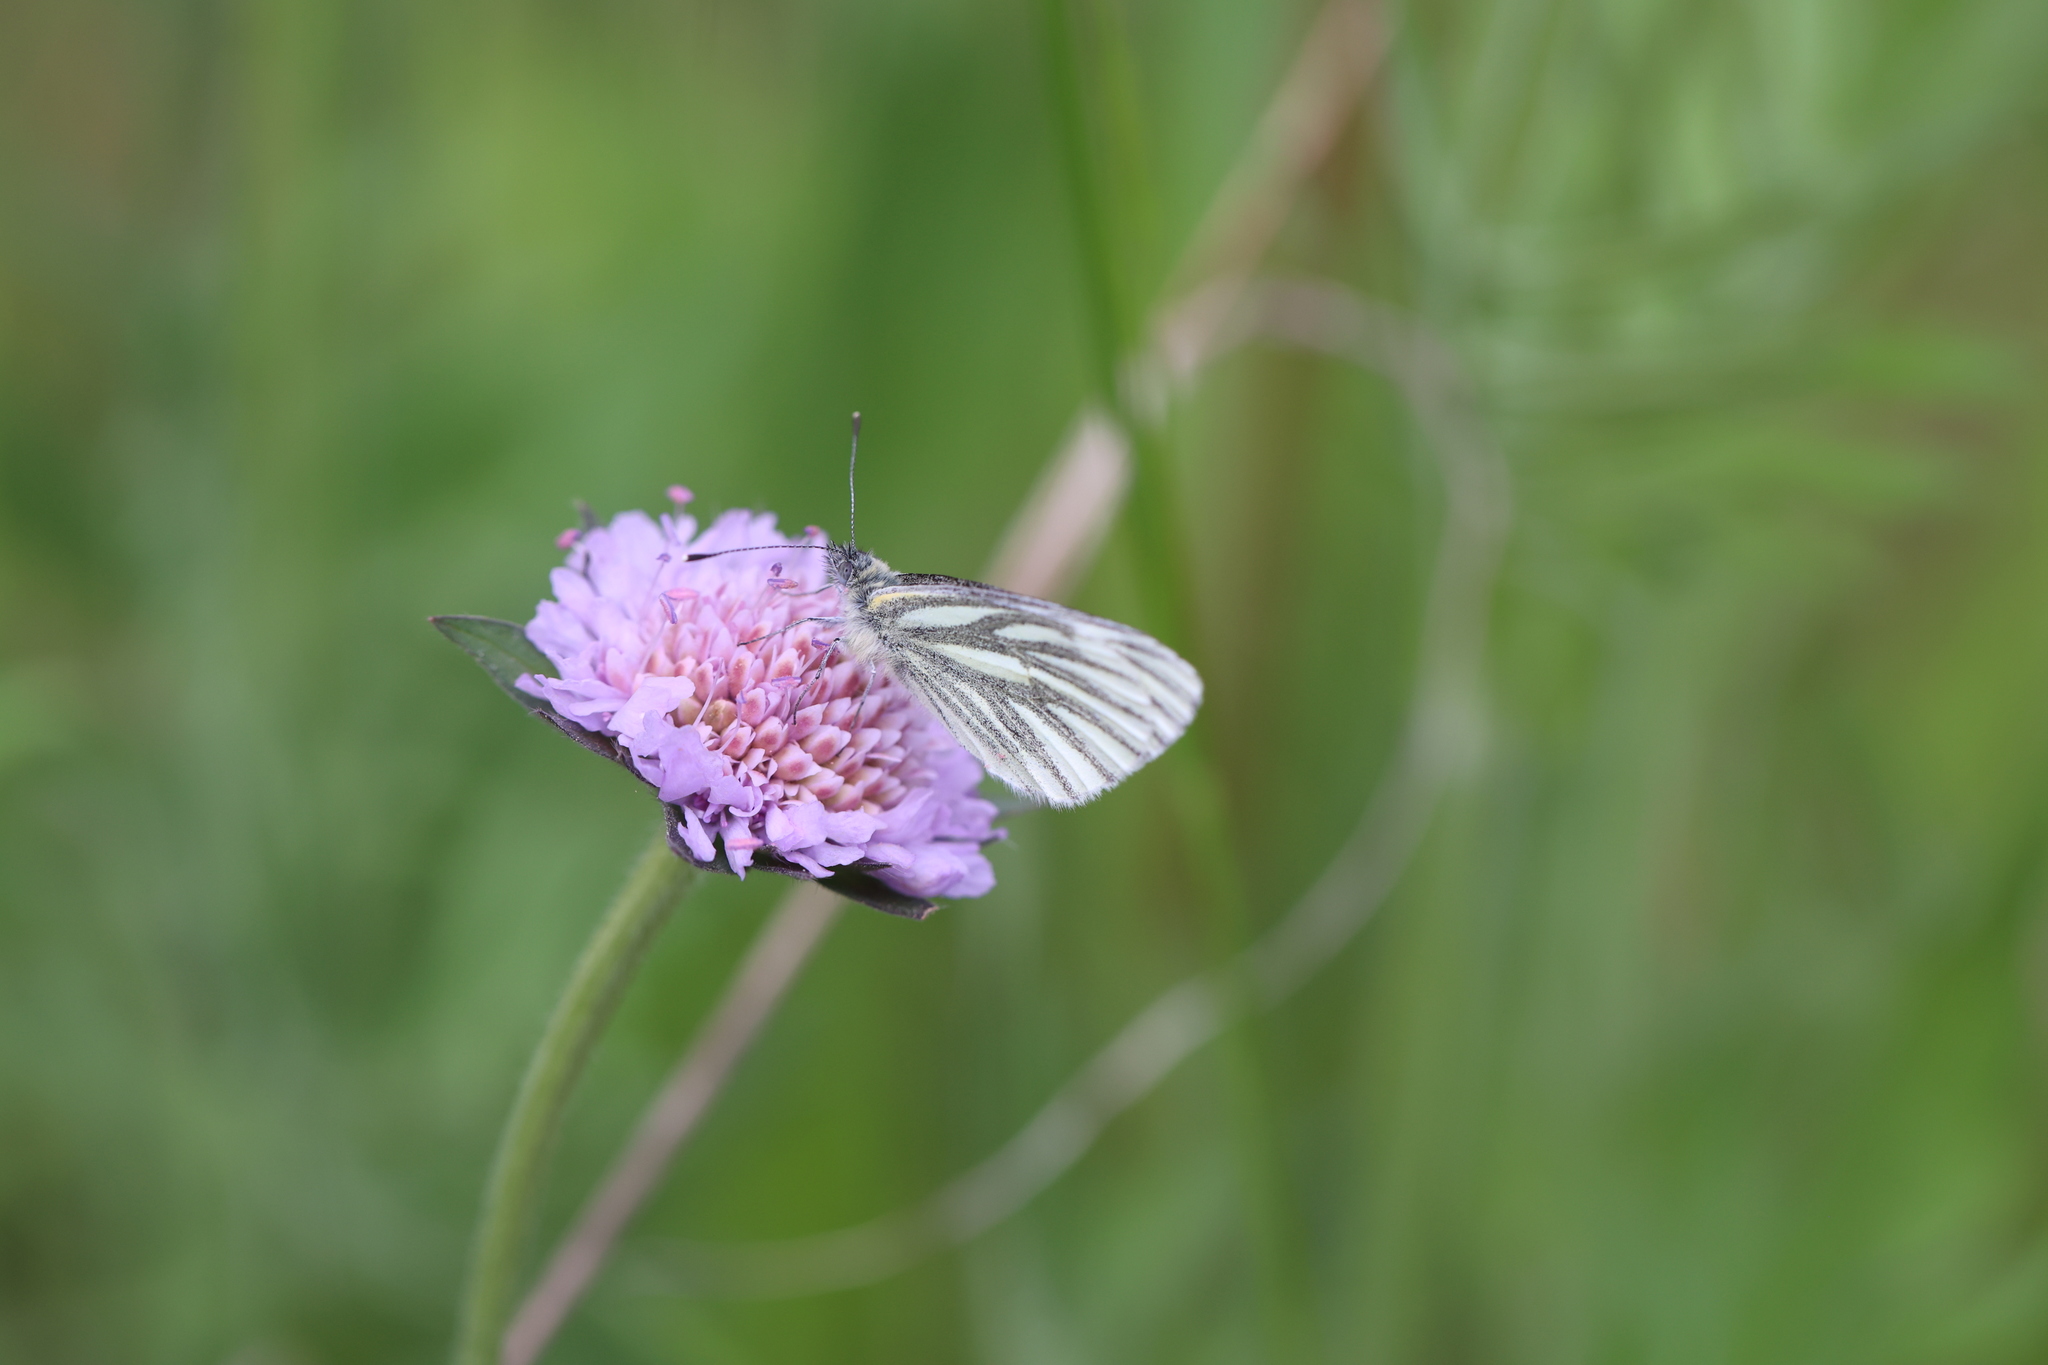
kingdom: Animalia
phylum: Arthropoda
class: Insecta
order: Lepidoptera
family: Pieridae
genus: Pieris
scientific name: Pieris napi
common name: Green-veined white
